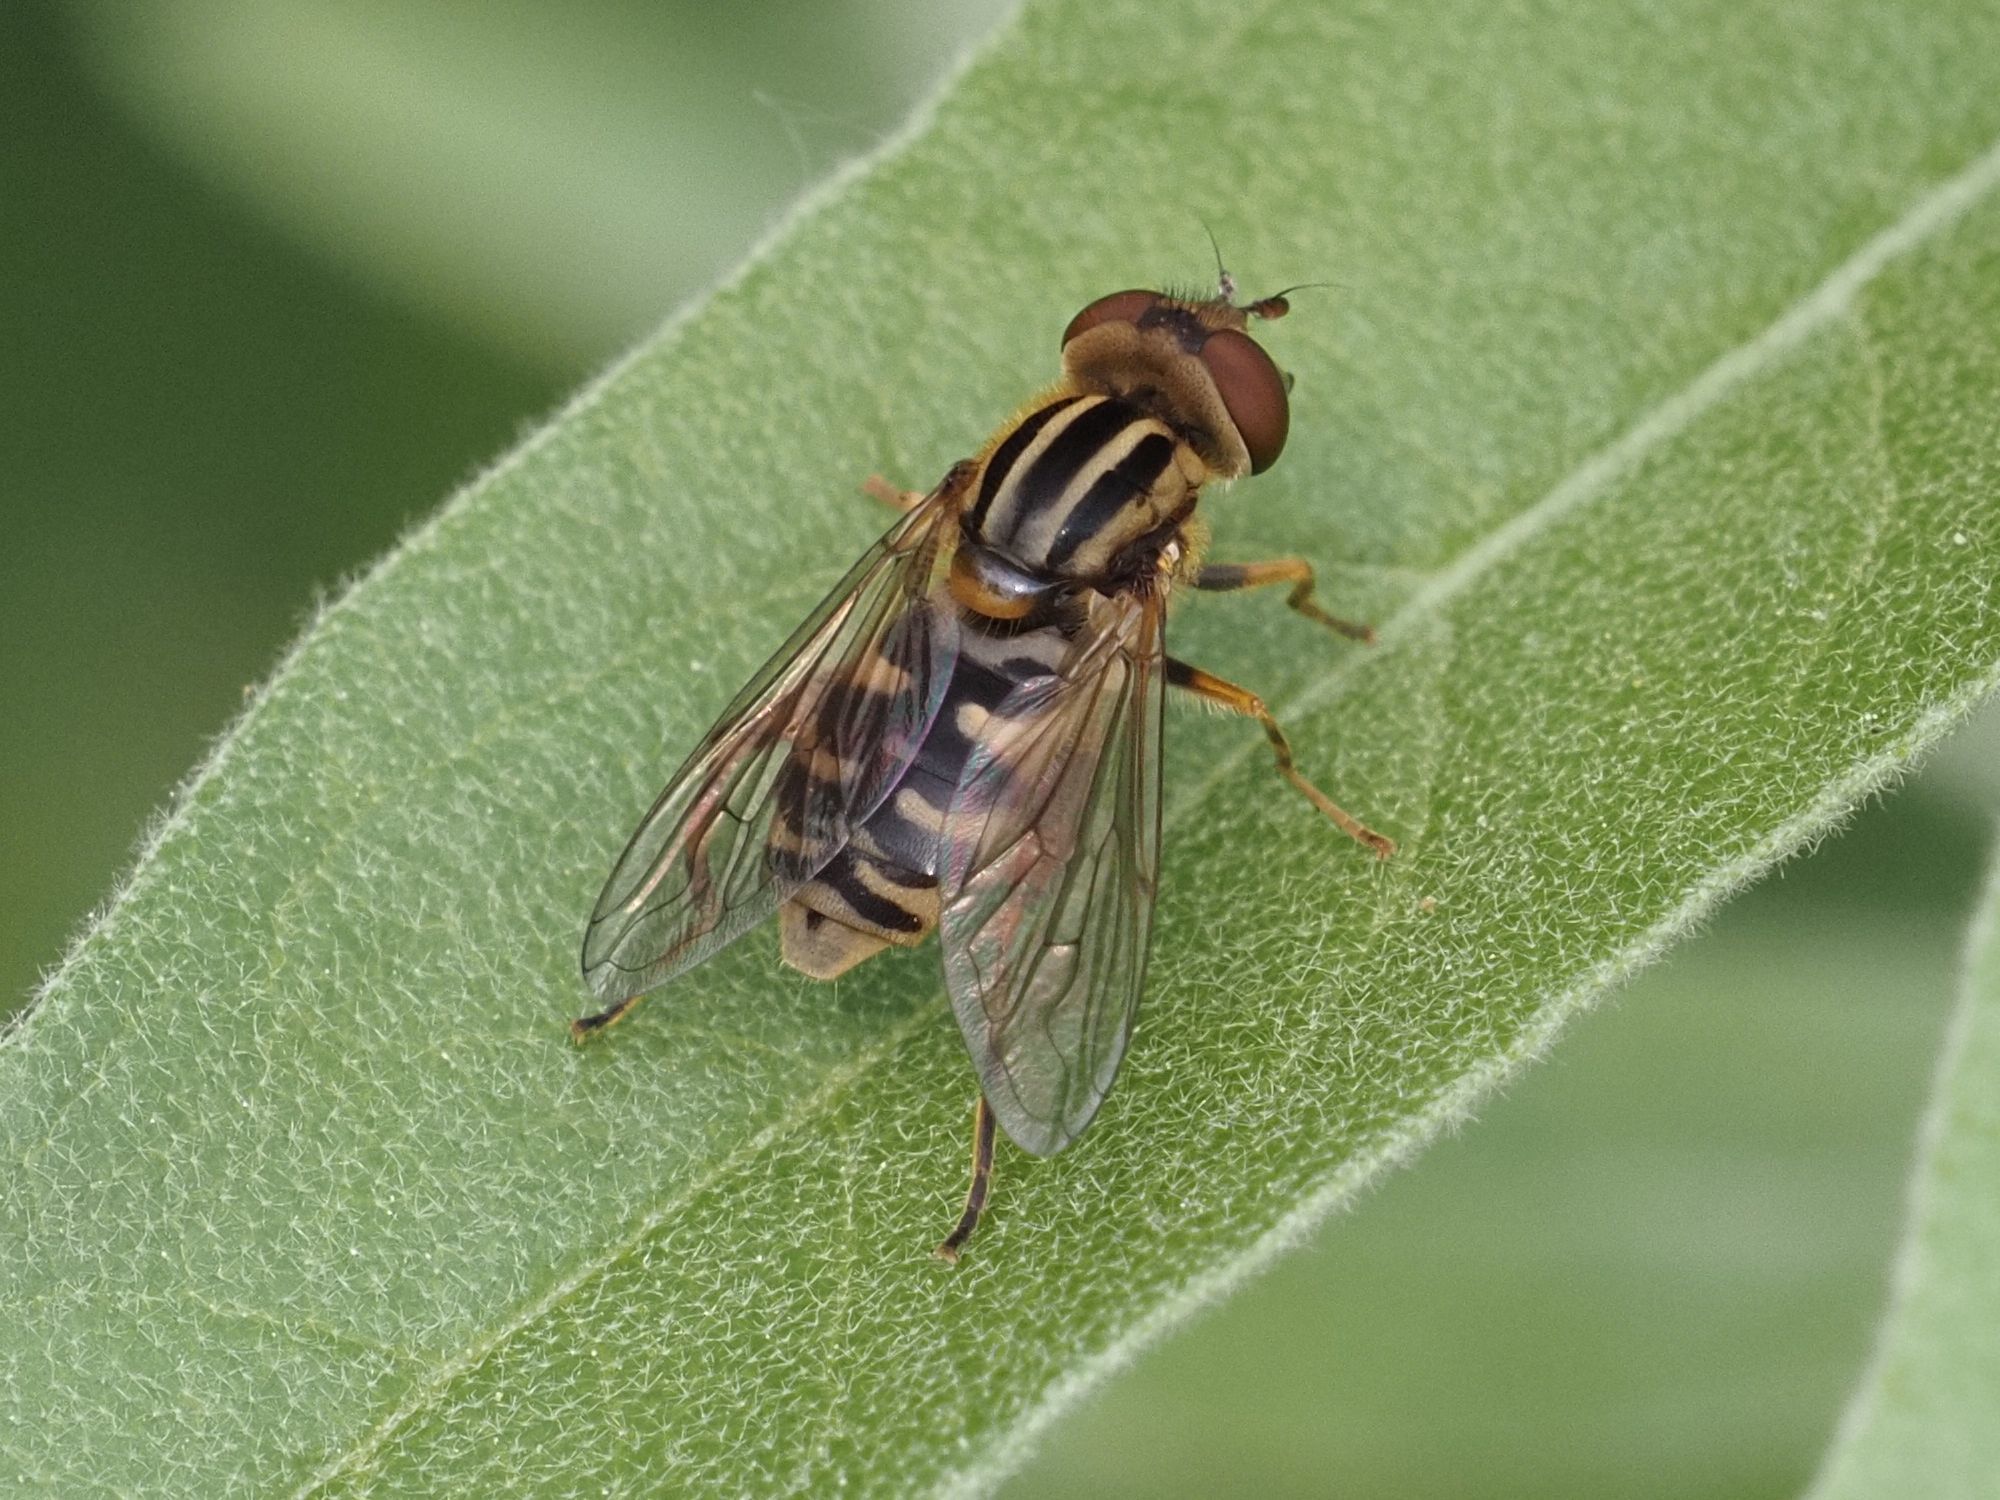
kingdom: Animalia
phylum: Arthropoda
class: Insecta
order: Diptera
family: Syrphidae
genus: Eurimyia
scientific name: Eurimyia lineatus
